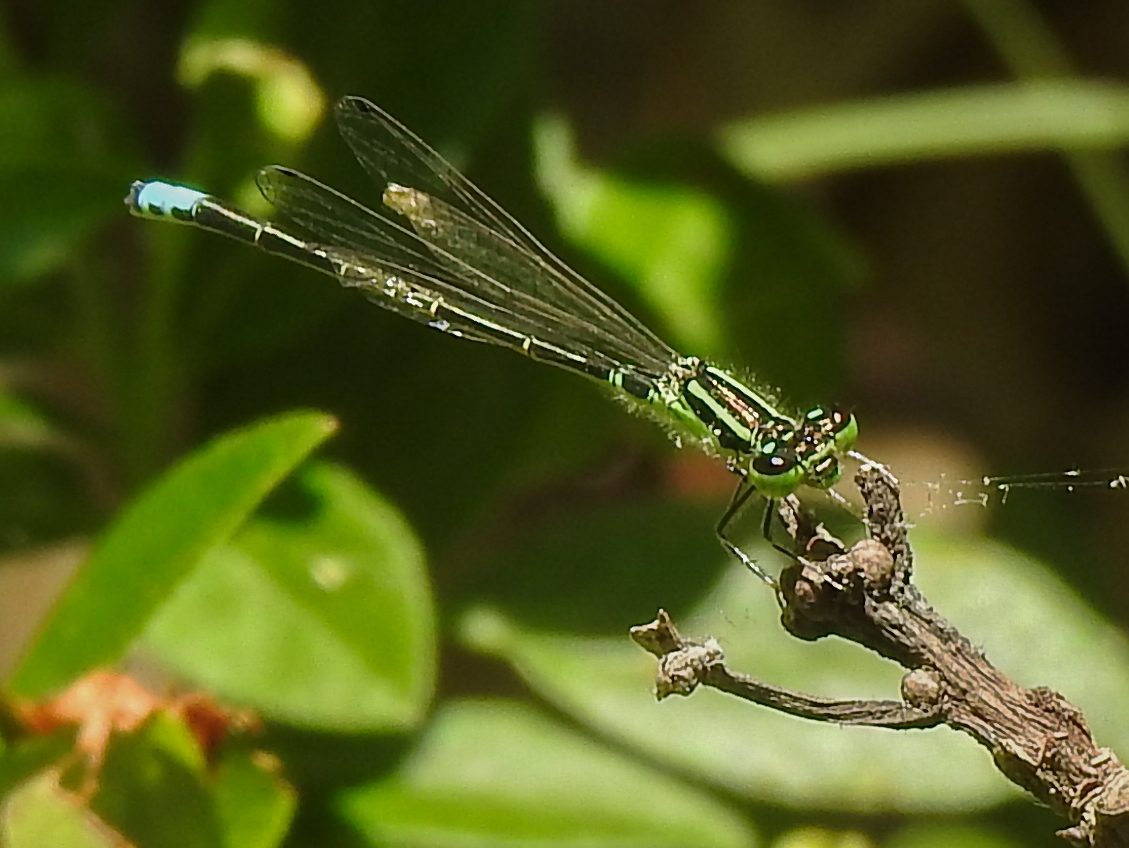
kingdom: Animalia
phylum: Arthropoda
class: Insecta
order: Odonata
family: Coenagrionidae
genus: Ischnura
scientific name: Ischnura verticalis
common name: Eastern forktail
